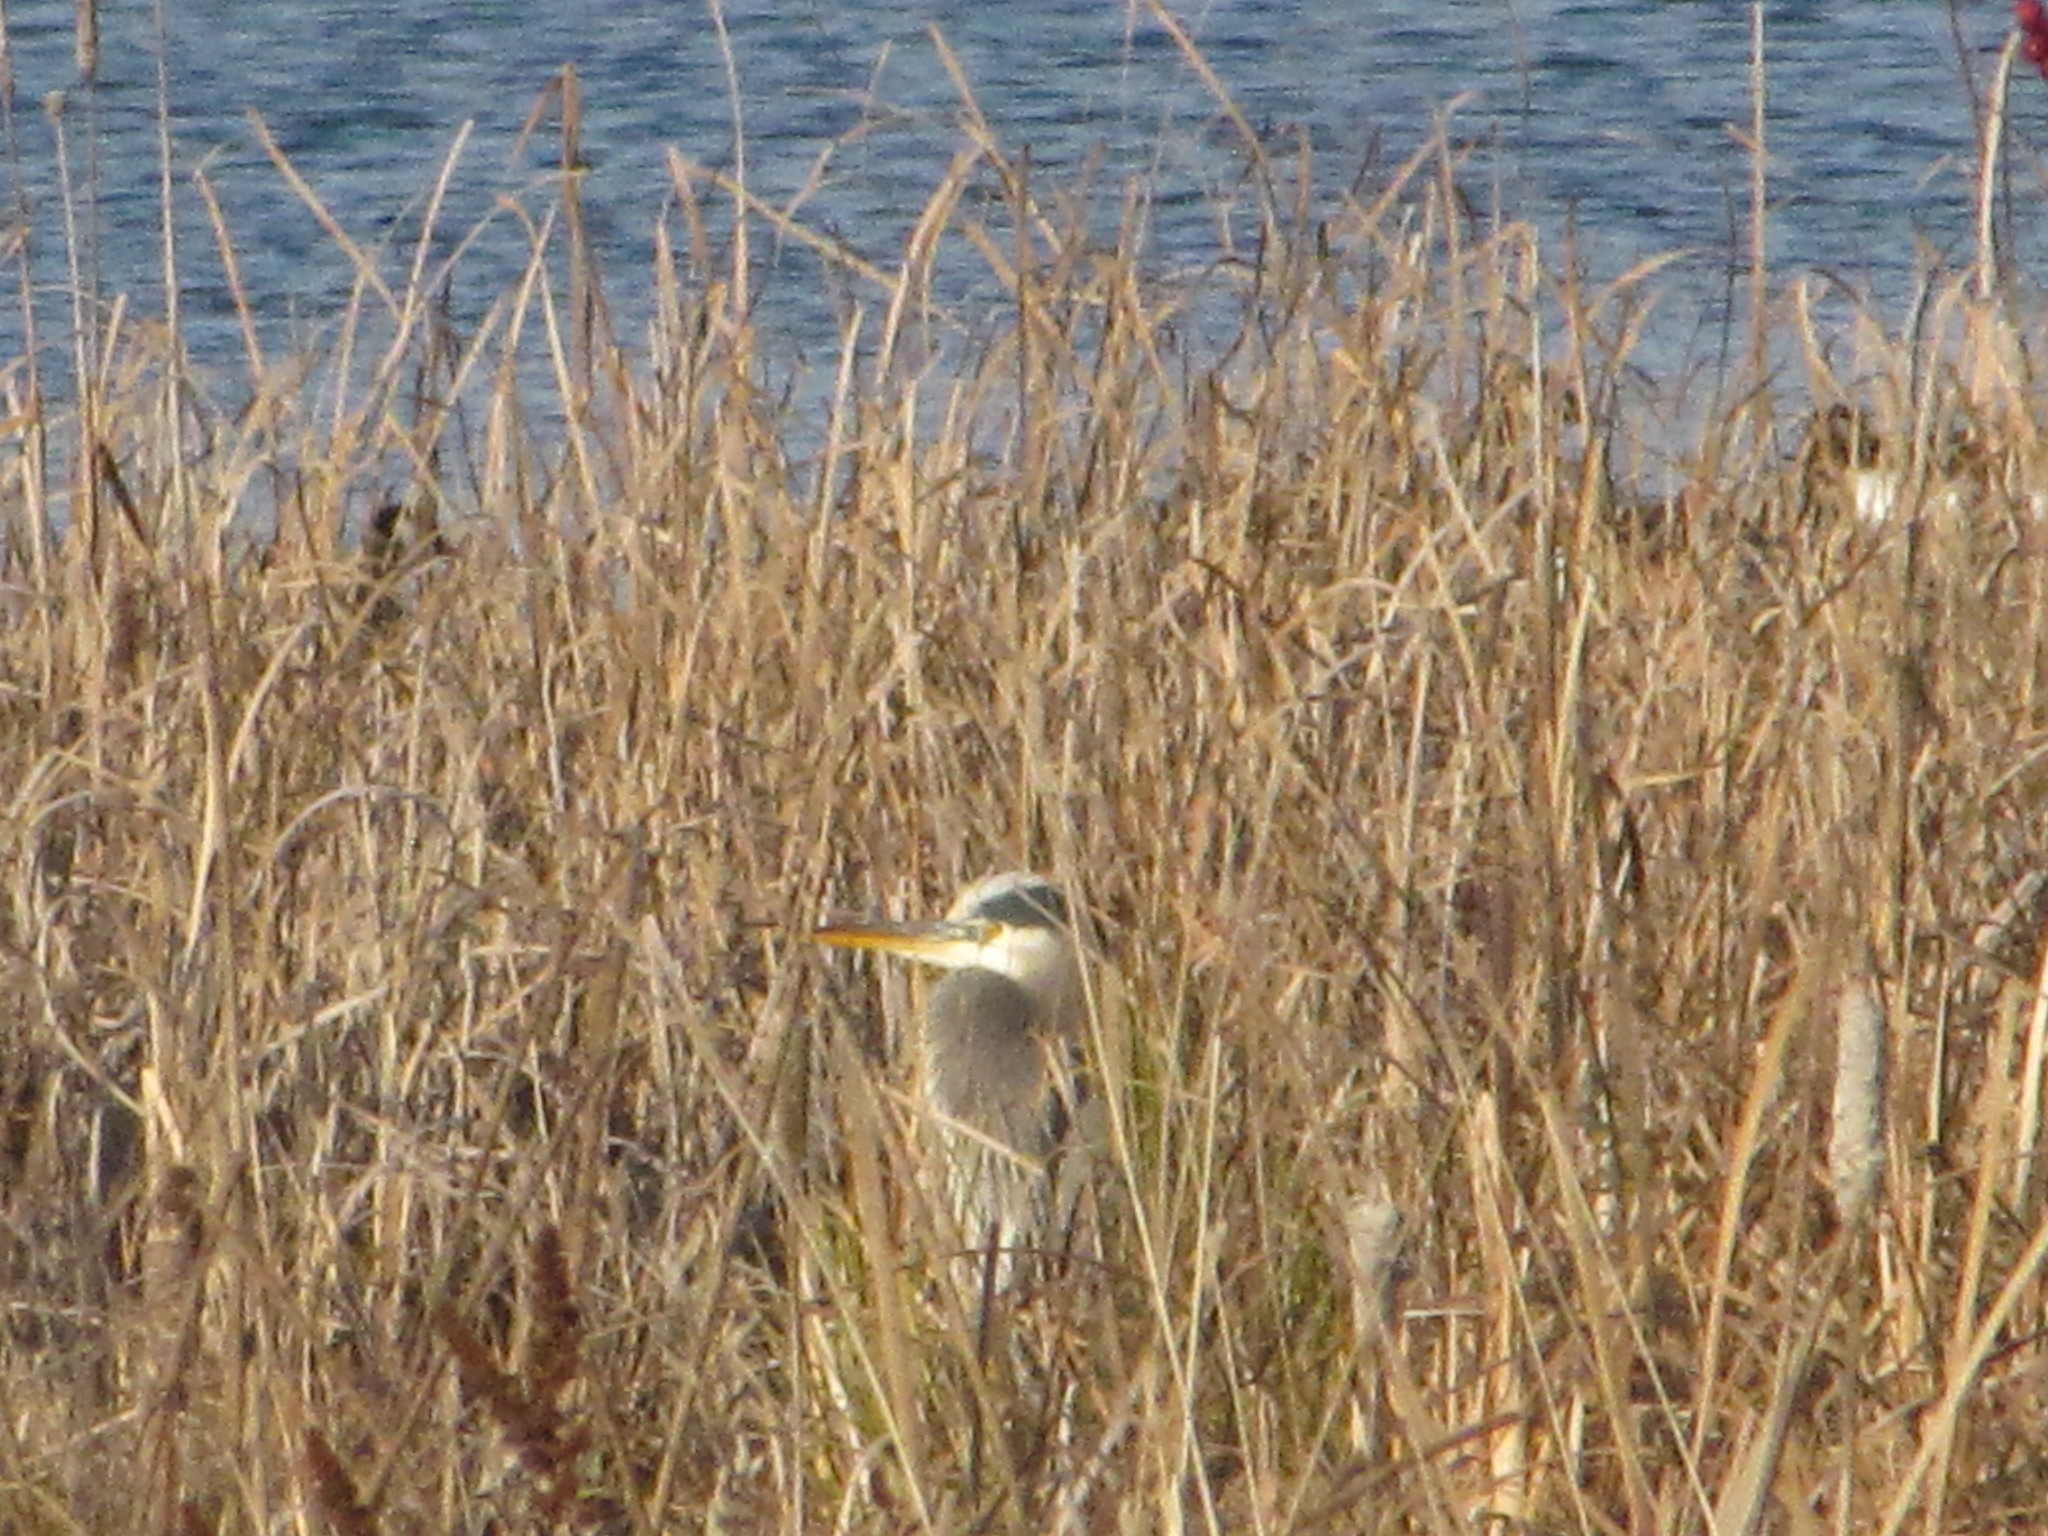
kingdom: Animalia
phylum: Chordata
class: Aves
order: Pelecaniformes
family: Ardeidae
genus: Ardea
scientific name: Ardea herodias
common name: Great blue heron
